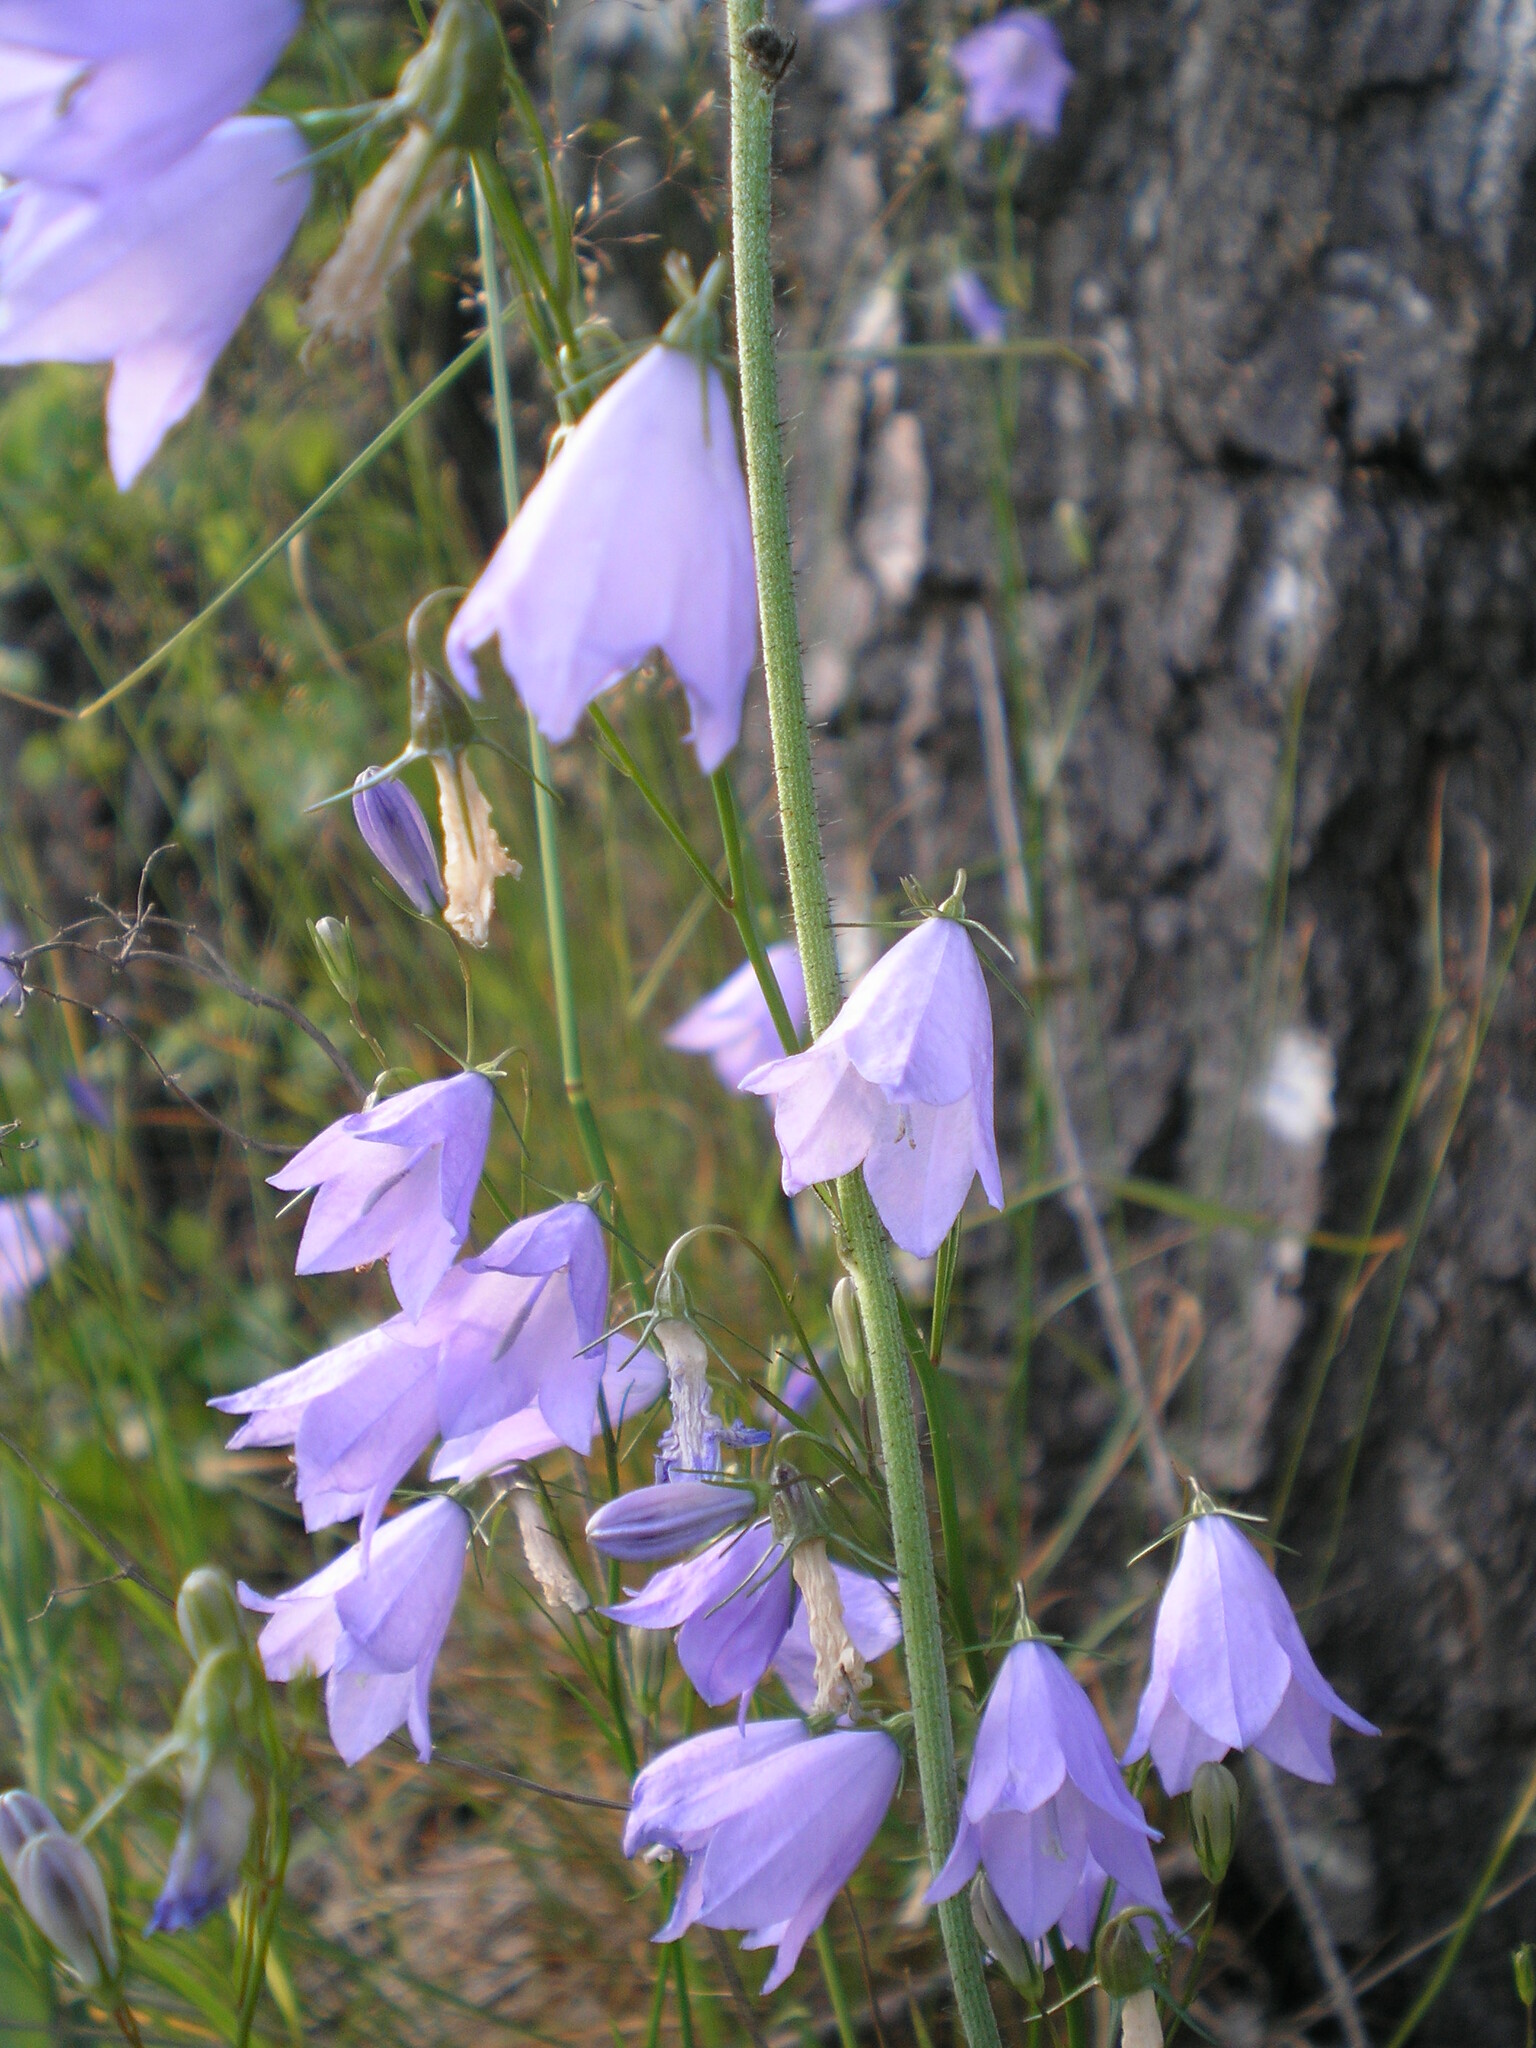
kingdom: Plantae
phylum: Tracheophyta
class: Magnoliopsida
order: Asterales
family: Campanulaceae
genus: Campanula
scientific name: Campanula rotundifolia
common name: Harebell
